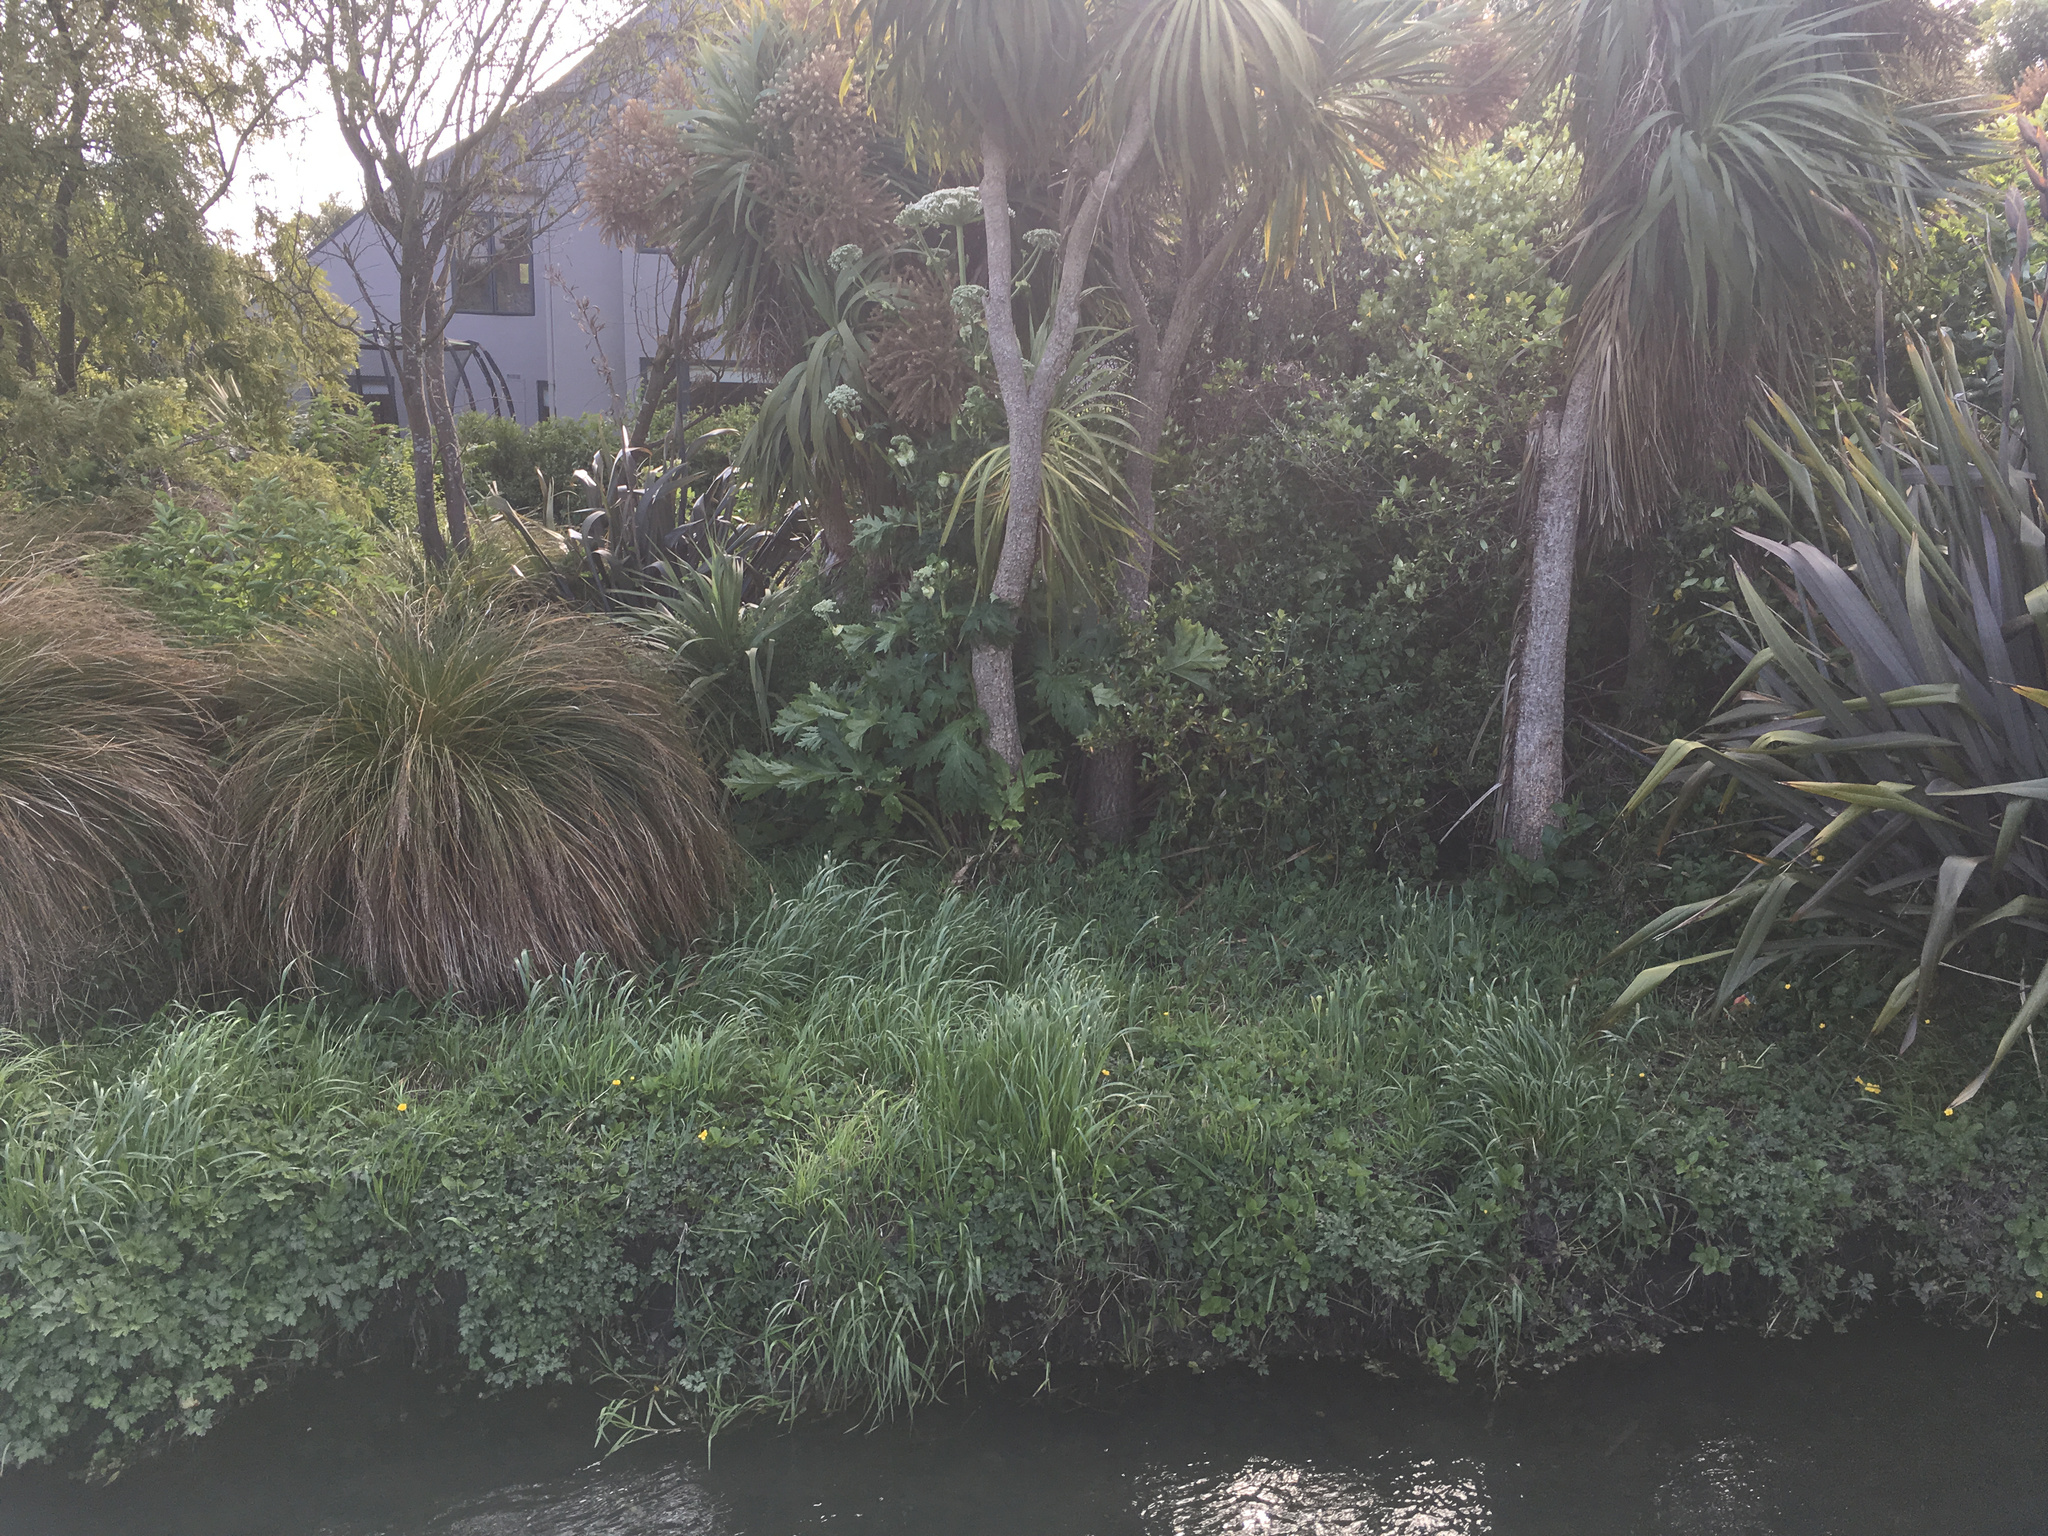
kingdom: Plantae
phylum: Tracheophyta
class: Magnoliopsida
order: Apiales
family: Apiaceae
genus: Heracleum
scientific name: Heracleum mantegazzianum
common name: Giant hogweed
